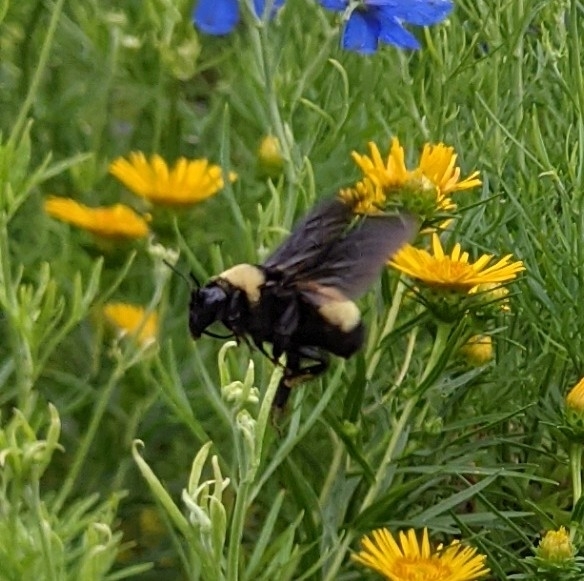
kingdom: Animalia
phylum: Arthropoda
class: Insecta
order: Hymenoptera
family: Apidae
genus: Bombus
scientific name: Bombus auricomus
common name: Black and gold bumble bee
